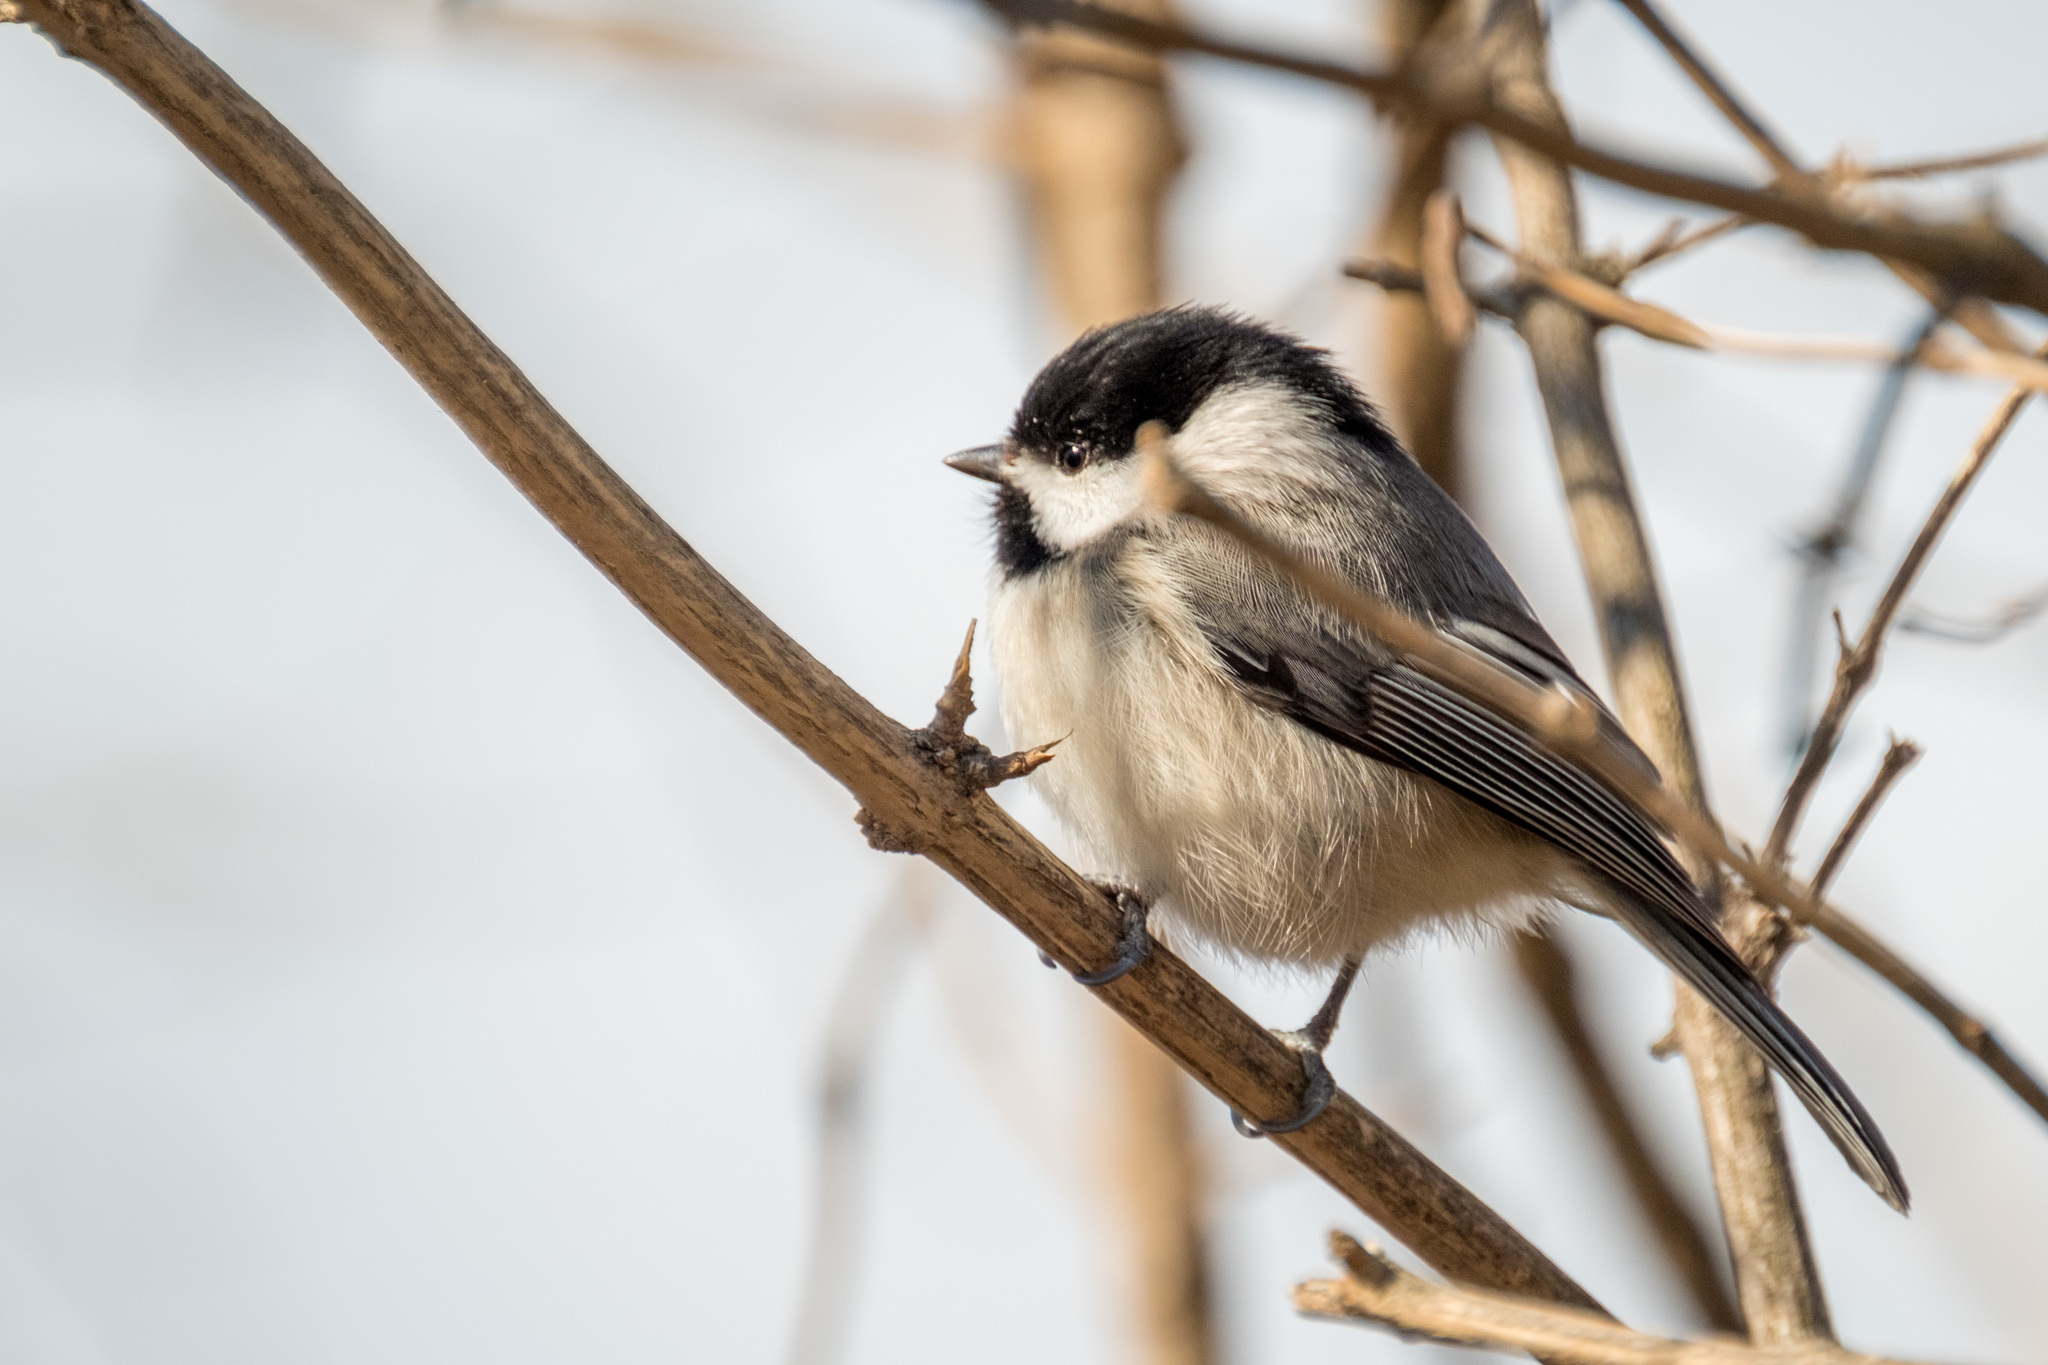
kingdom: Animalia
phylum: Chordata
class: Aves
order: Passeriformes
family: Paridae
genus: Poecile
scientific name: Poecile carolinensis
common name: Carolina chickadee
